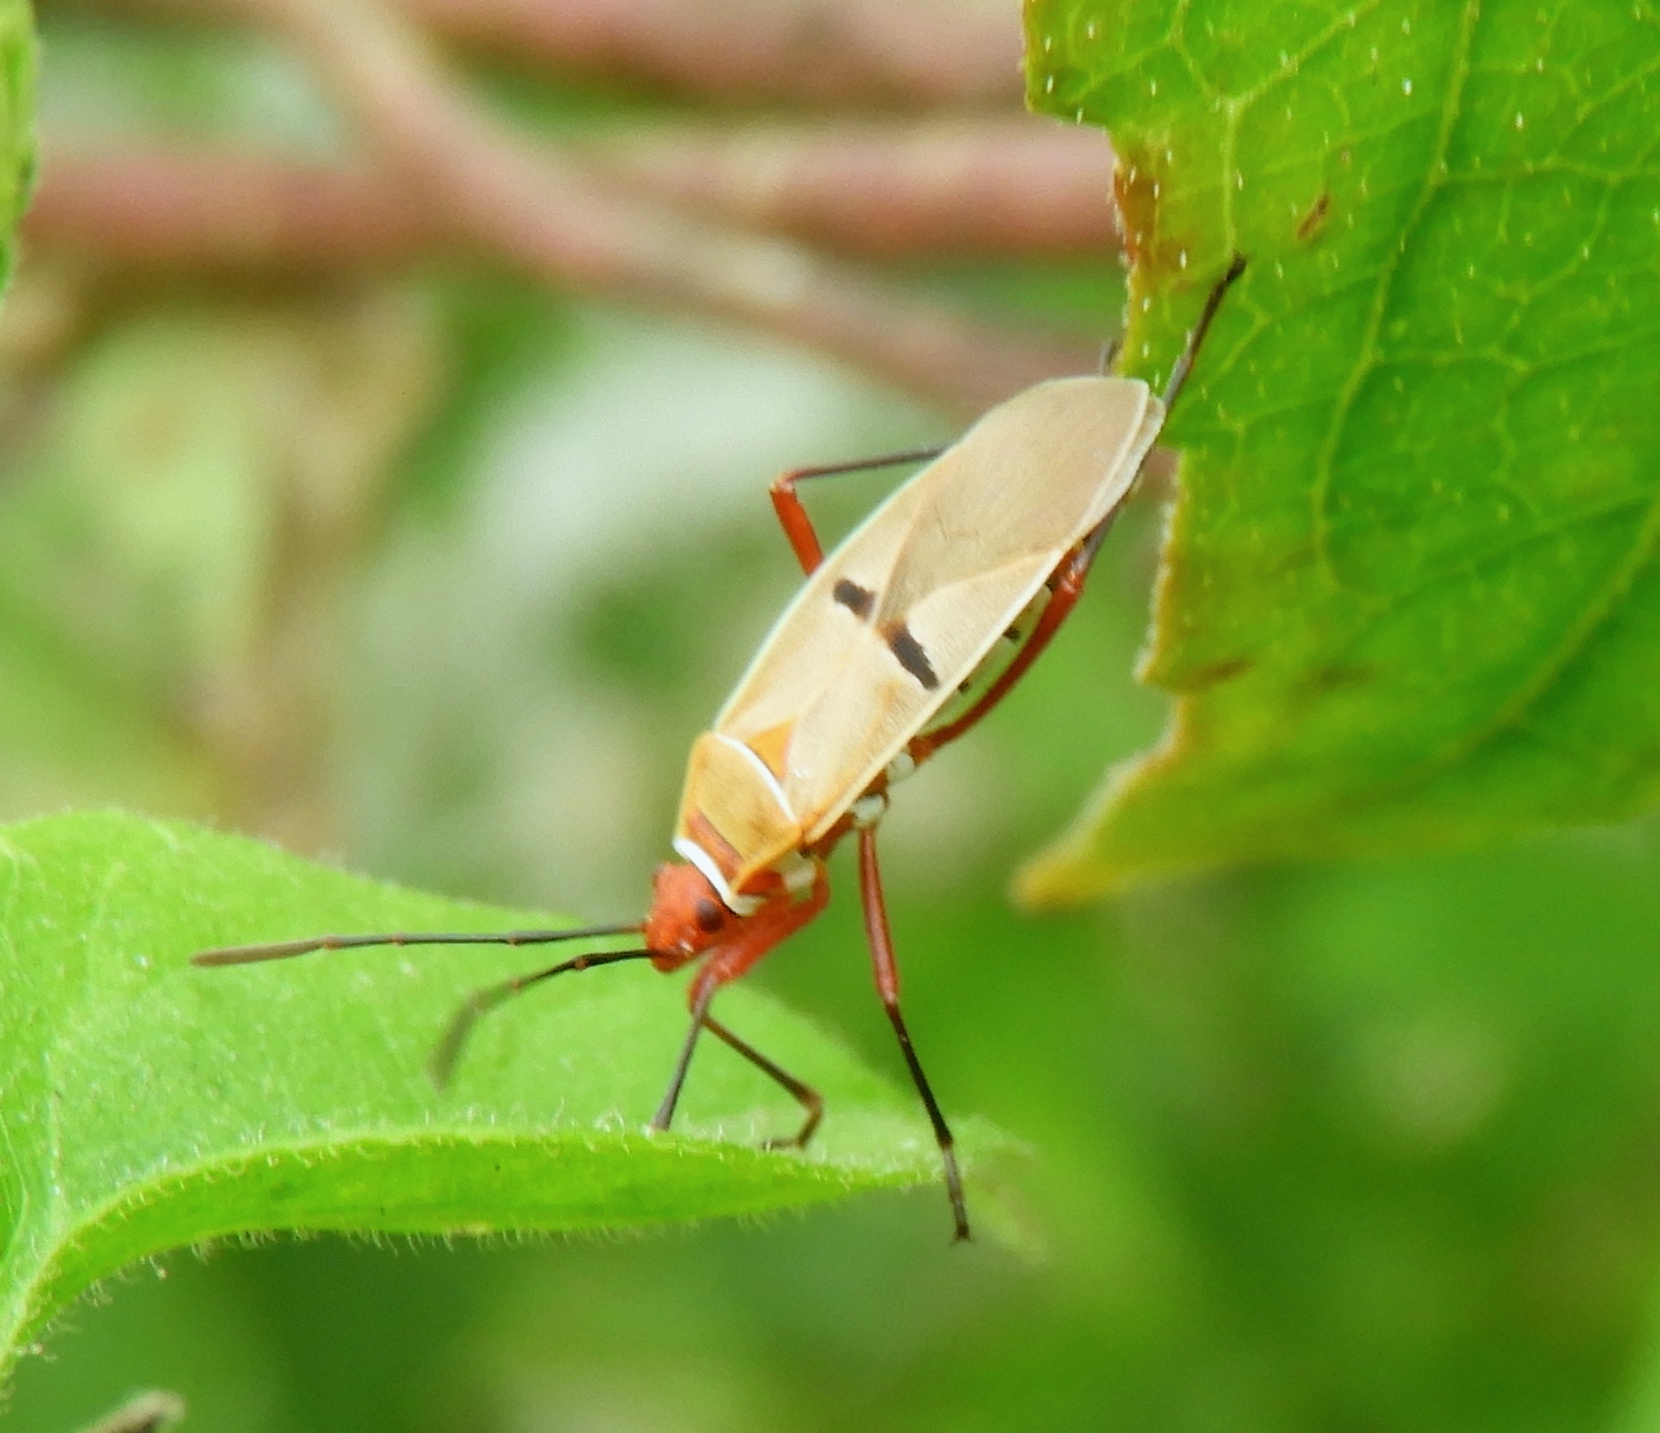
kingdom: Animalia
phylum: Arthropoda
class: Insecta
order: Hemiptera
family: Pyrrhocoridae
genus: Dysdercus
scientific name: Dysdercus
